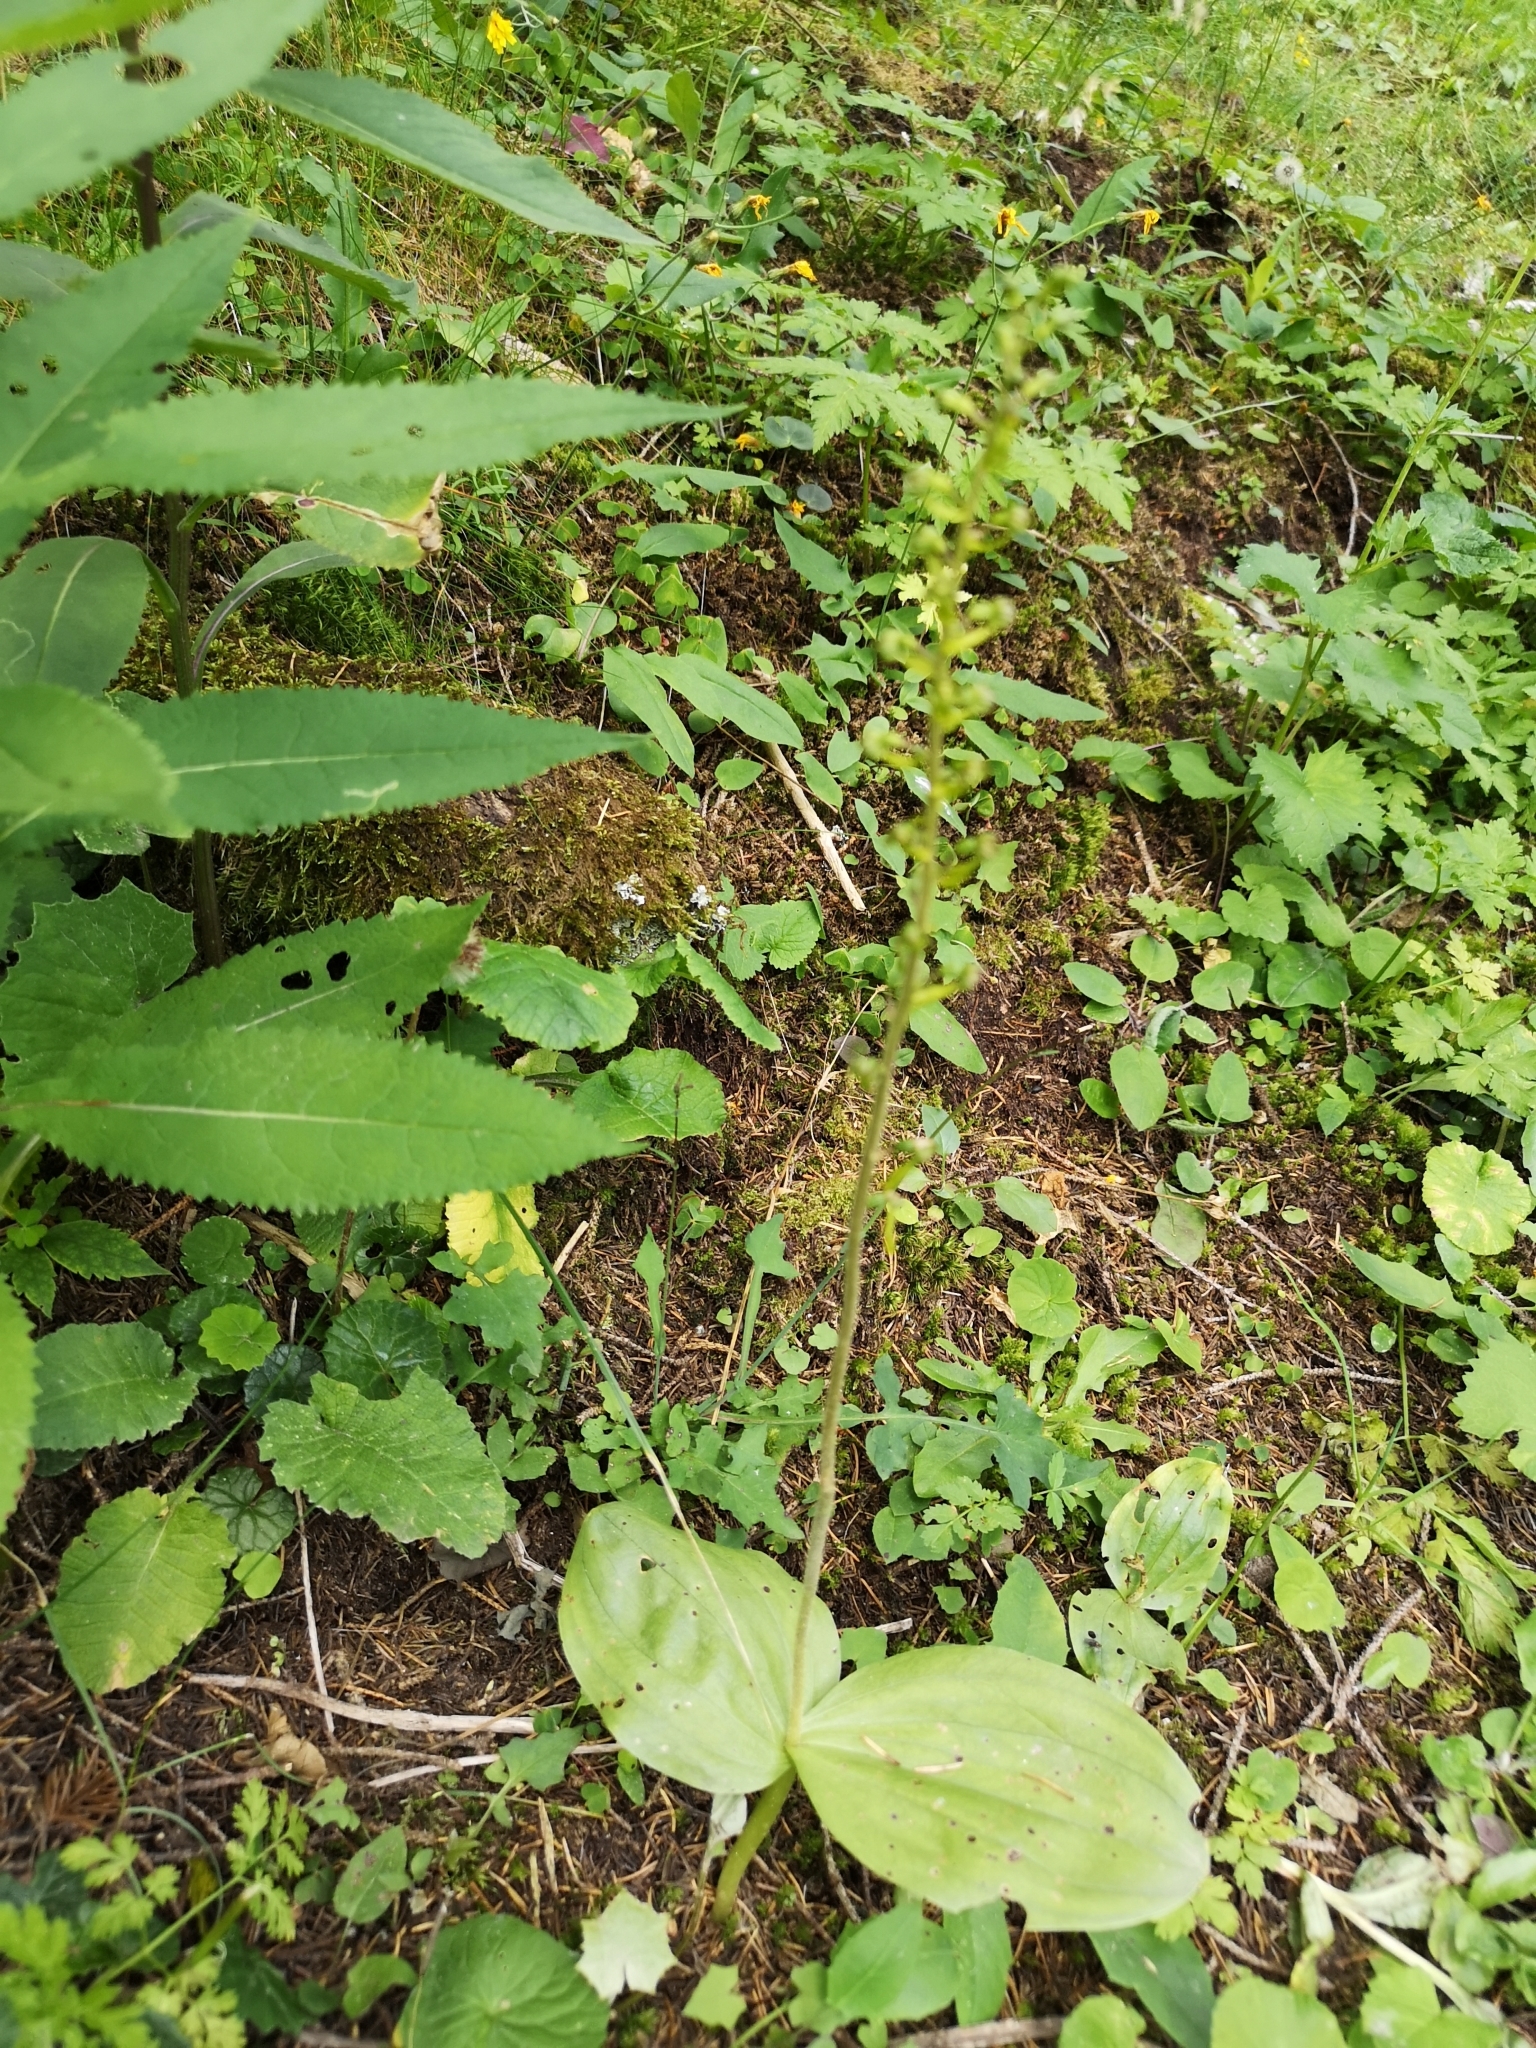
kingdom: Plantae
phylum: Tracheophyta
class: Liliopsida
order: Asparagales
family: Orchidaceae
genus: Neottia
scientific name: Neottia ovata
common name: Common twayblade
